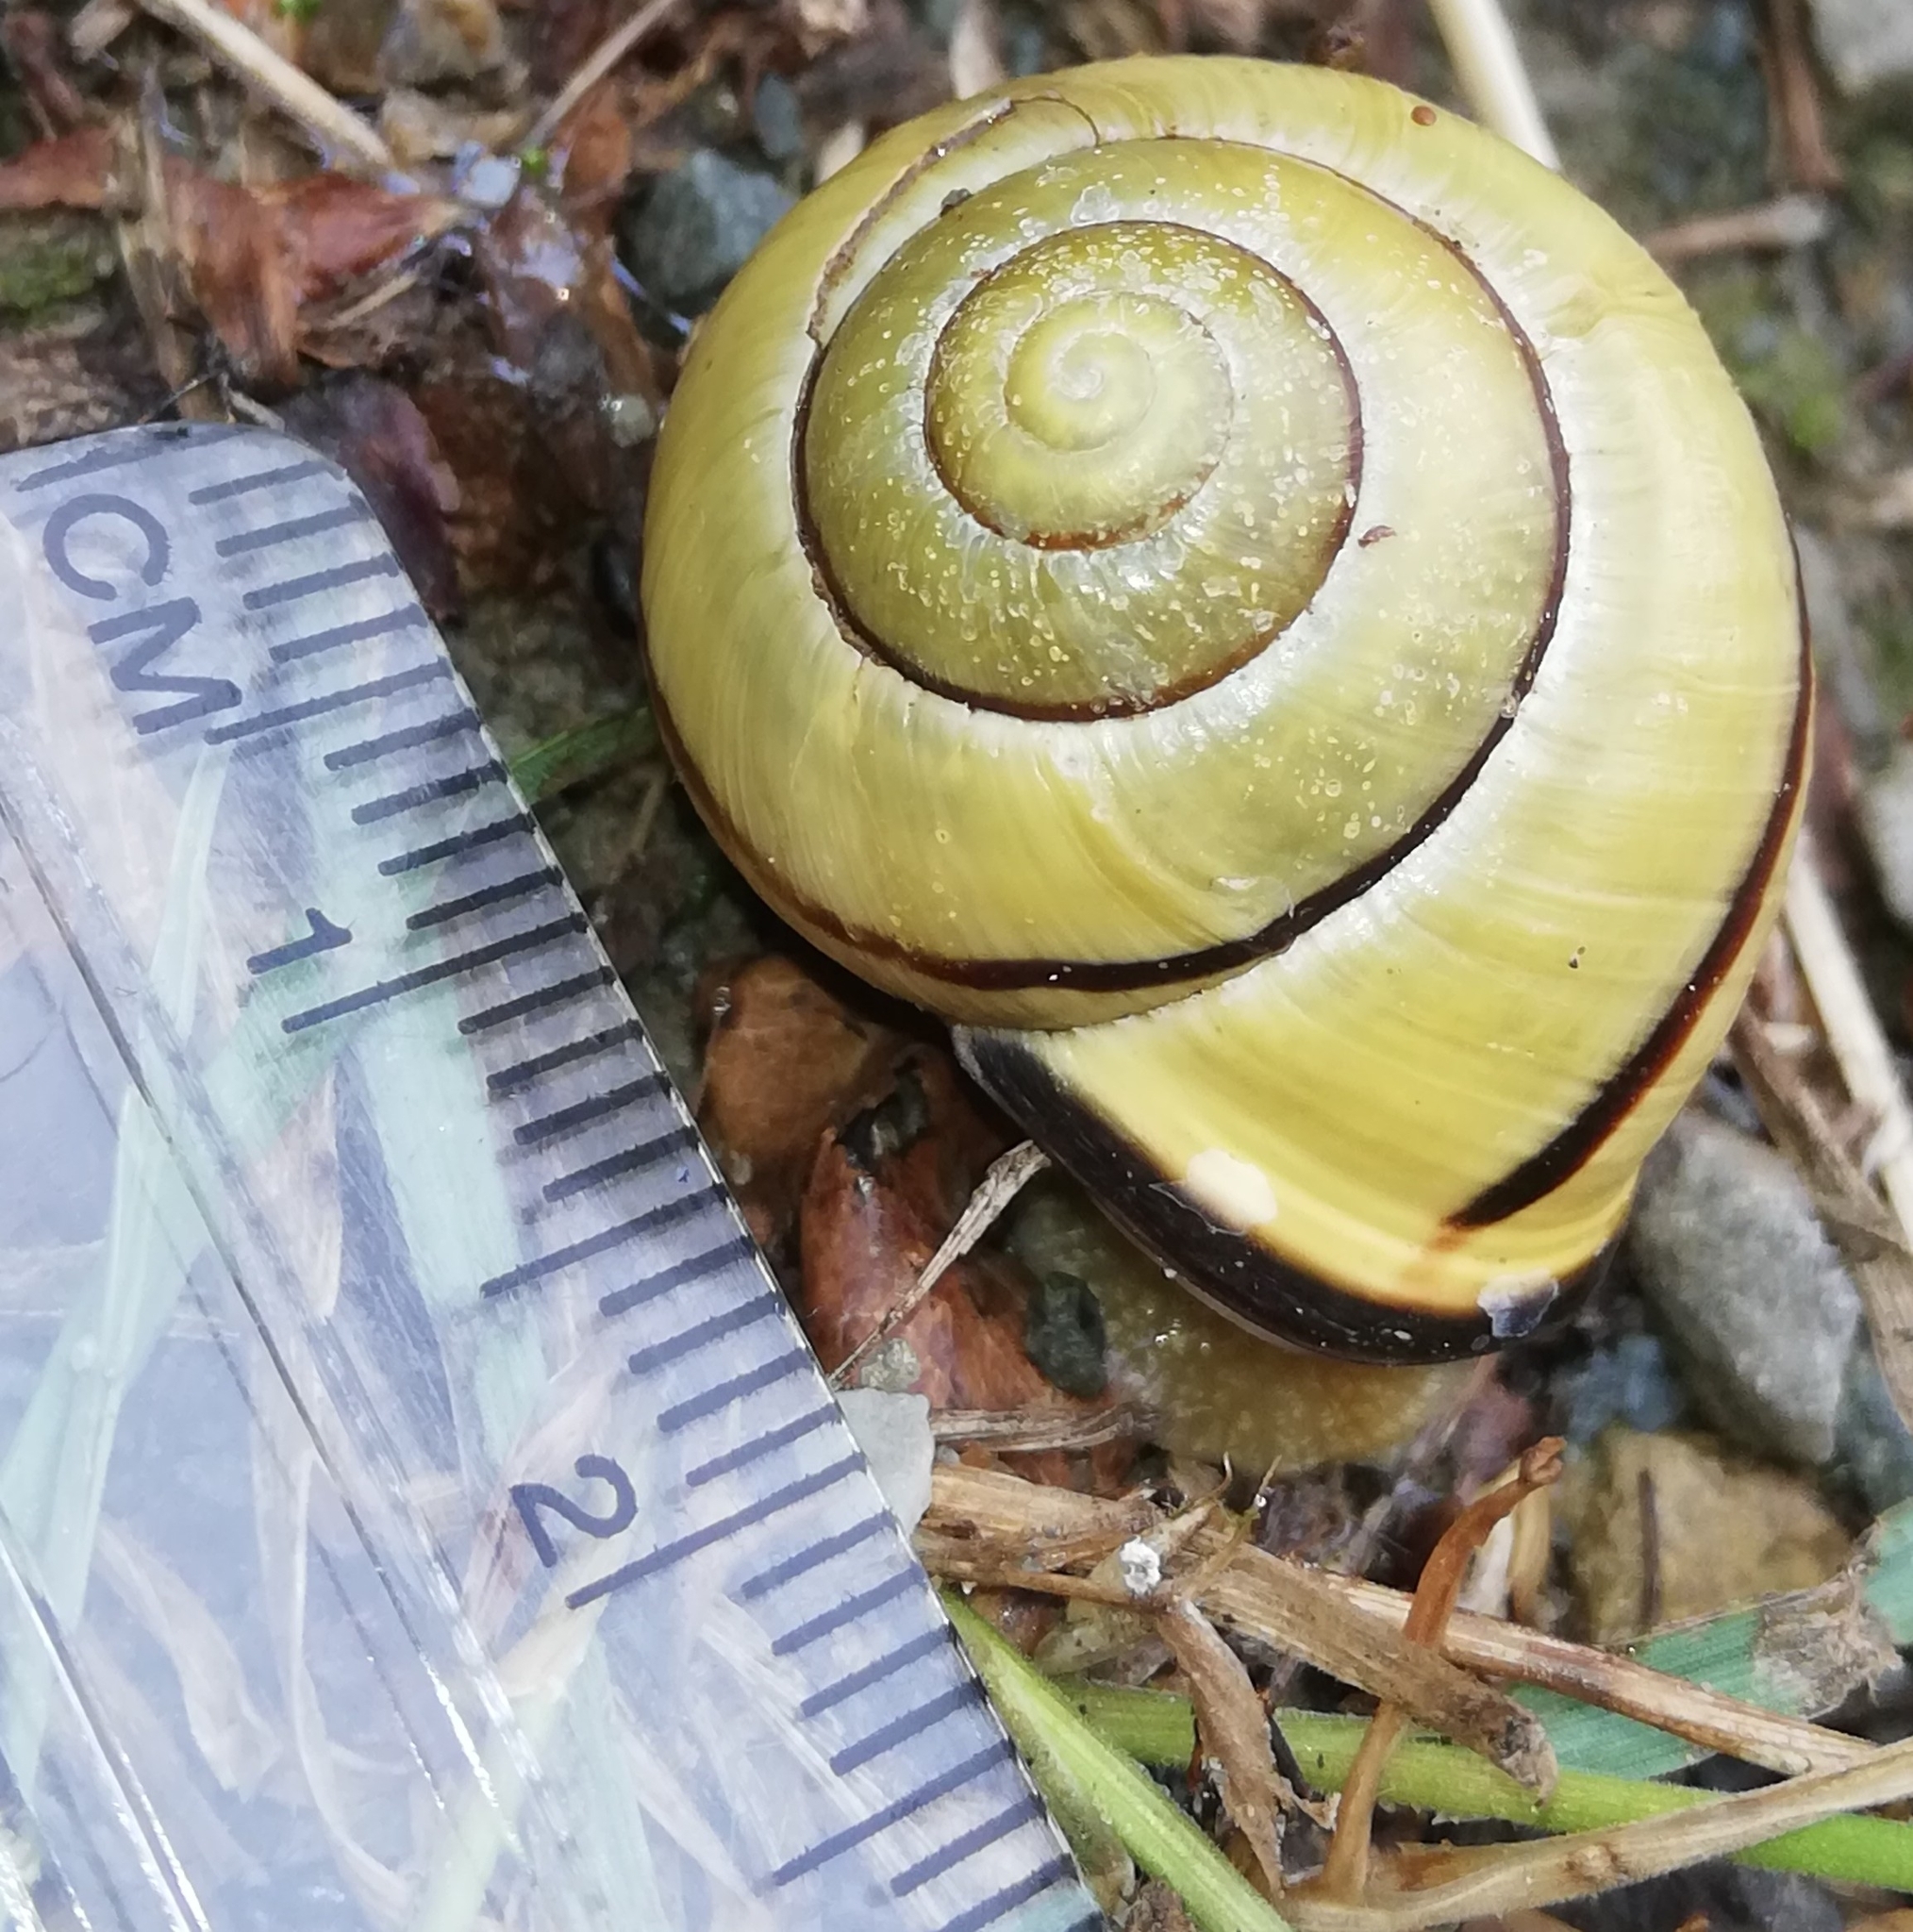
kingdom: Animalia
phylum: Mollusca
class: Gastropoda
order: Stylommatophora
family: Helicidae
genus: Cepaea
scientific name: Cepaea nemoralis
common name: Grovesnail
